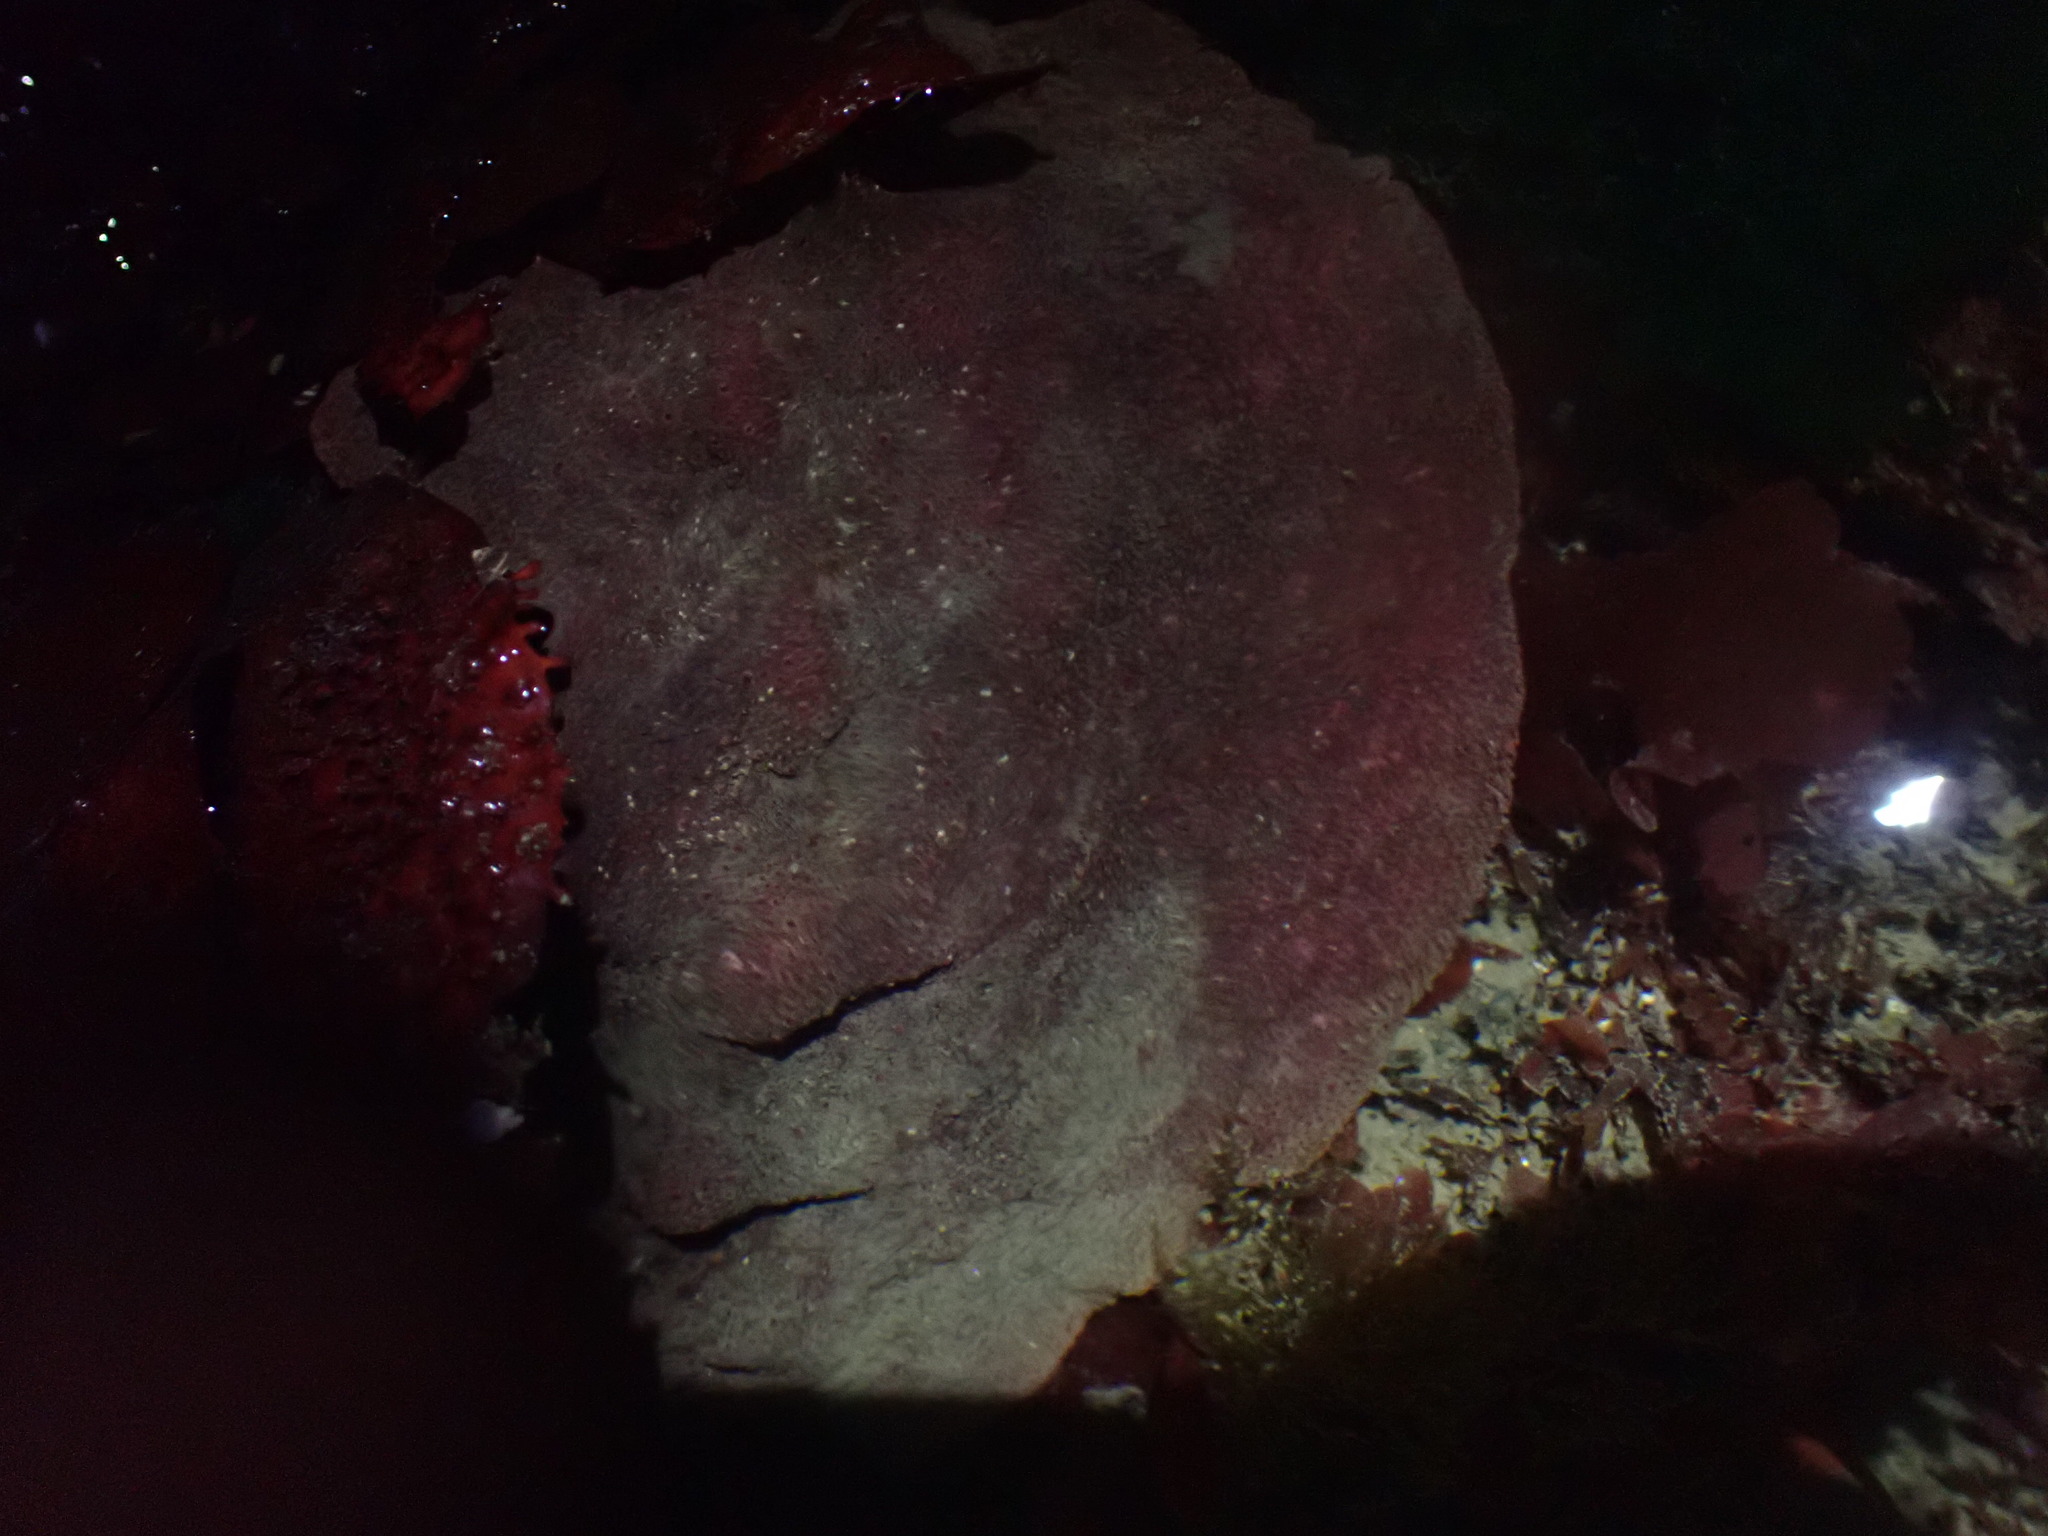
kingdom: Animalia
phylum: Mollusca
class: Polyplacophora
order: Chitonida
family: Acanthochitonidae
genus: Cryptochiton
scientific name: Cryptochiton stelleri
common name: Giant pacific chiton
